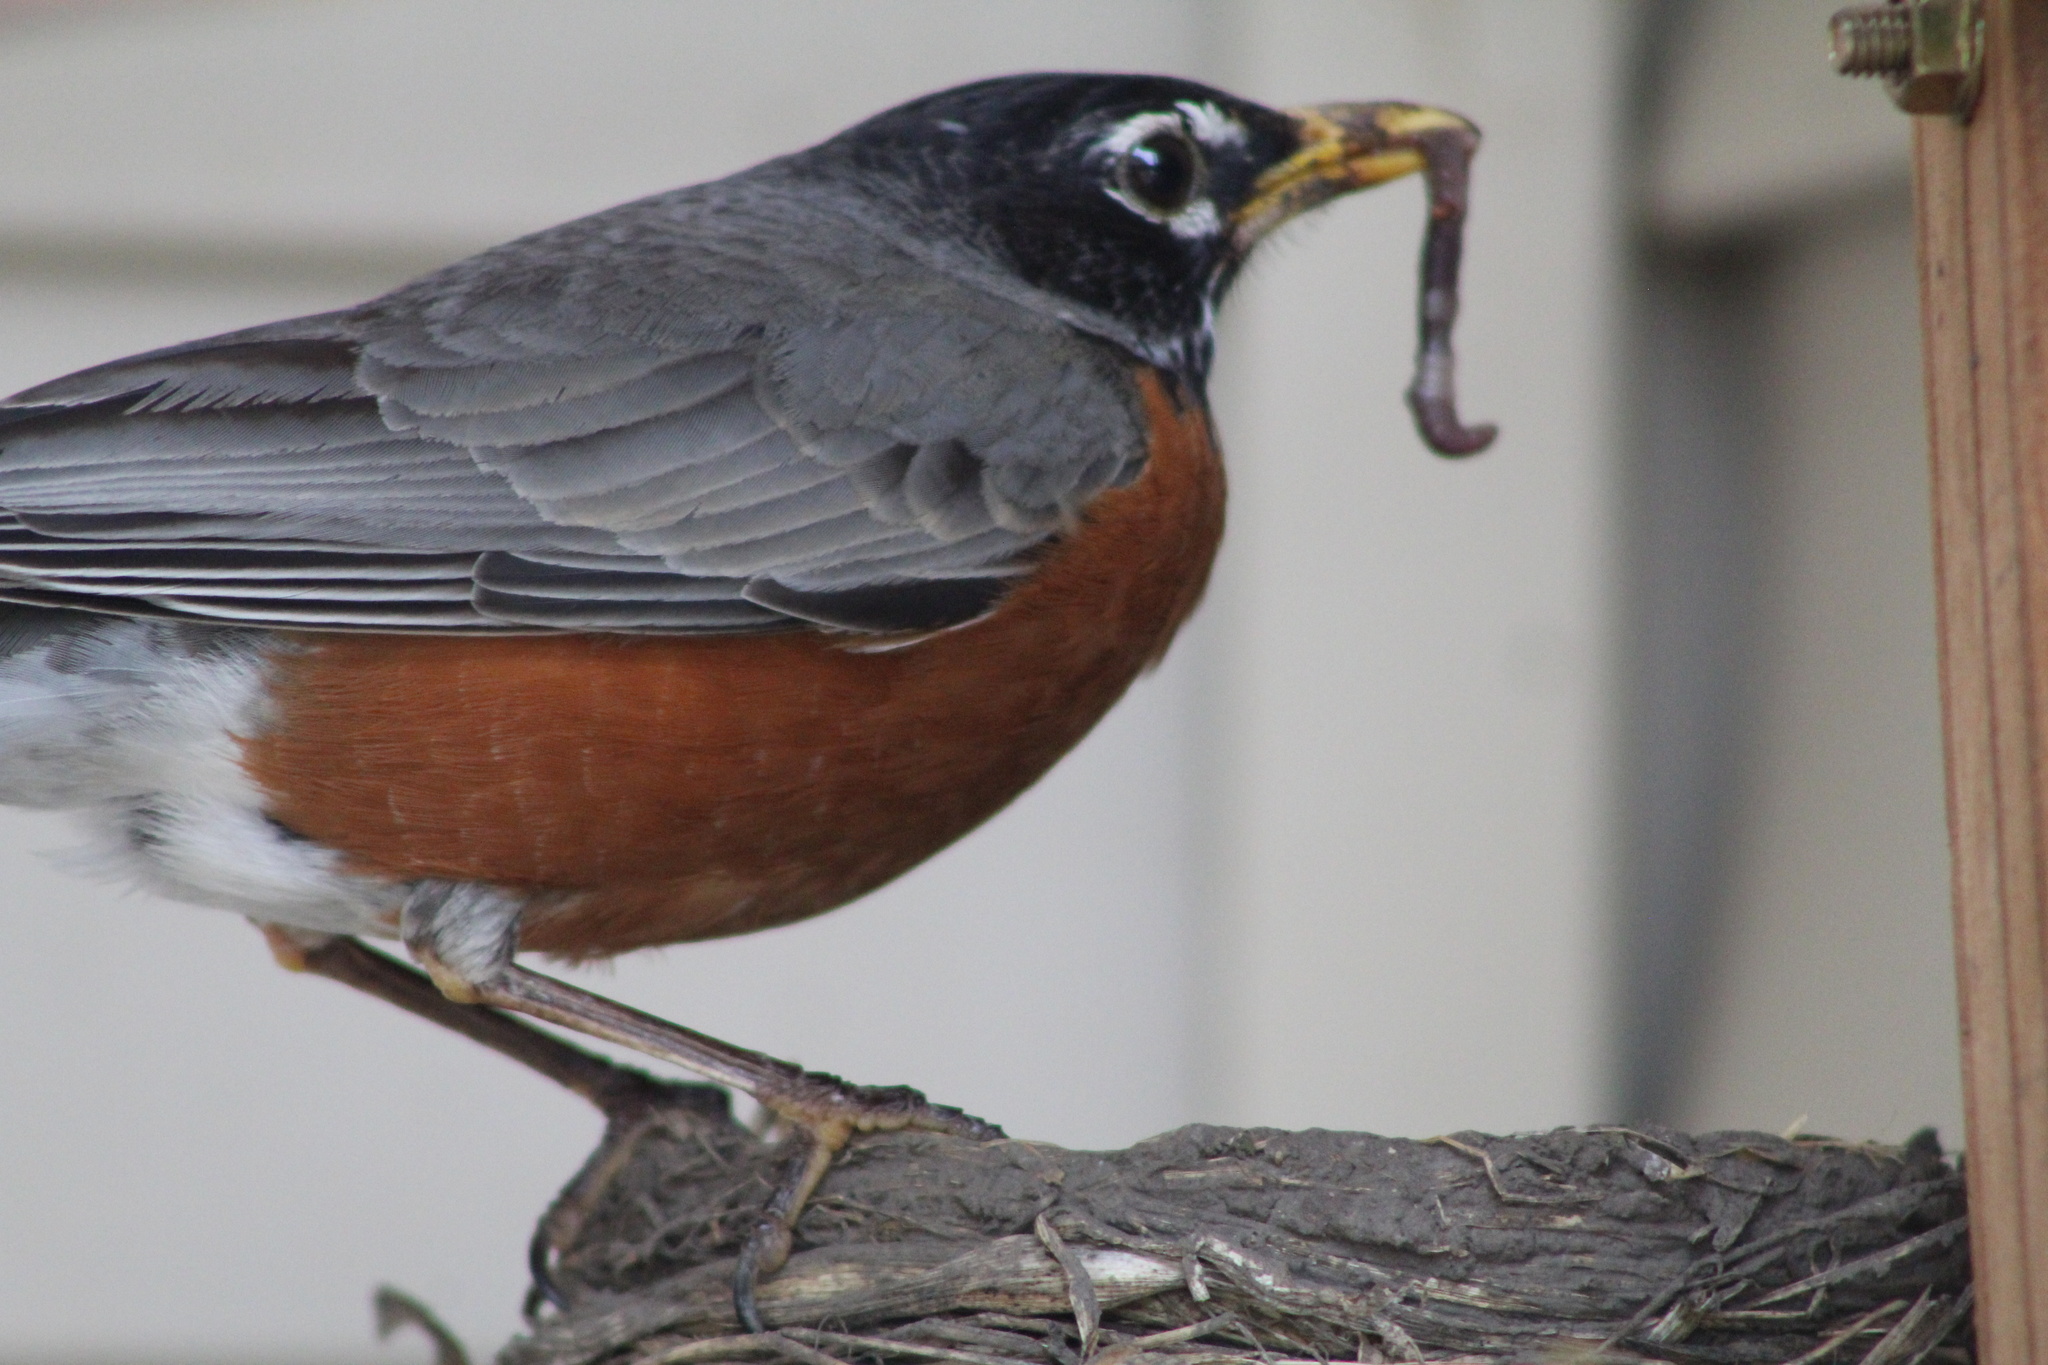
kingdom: Animalia
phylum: Chordata
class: Aves
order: Passeriformes
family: Turdidae
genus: Turdus
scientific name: Turdus migratorius
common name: American robin
